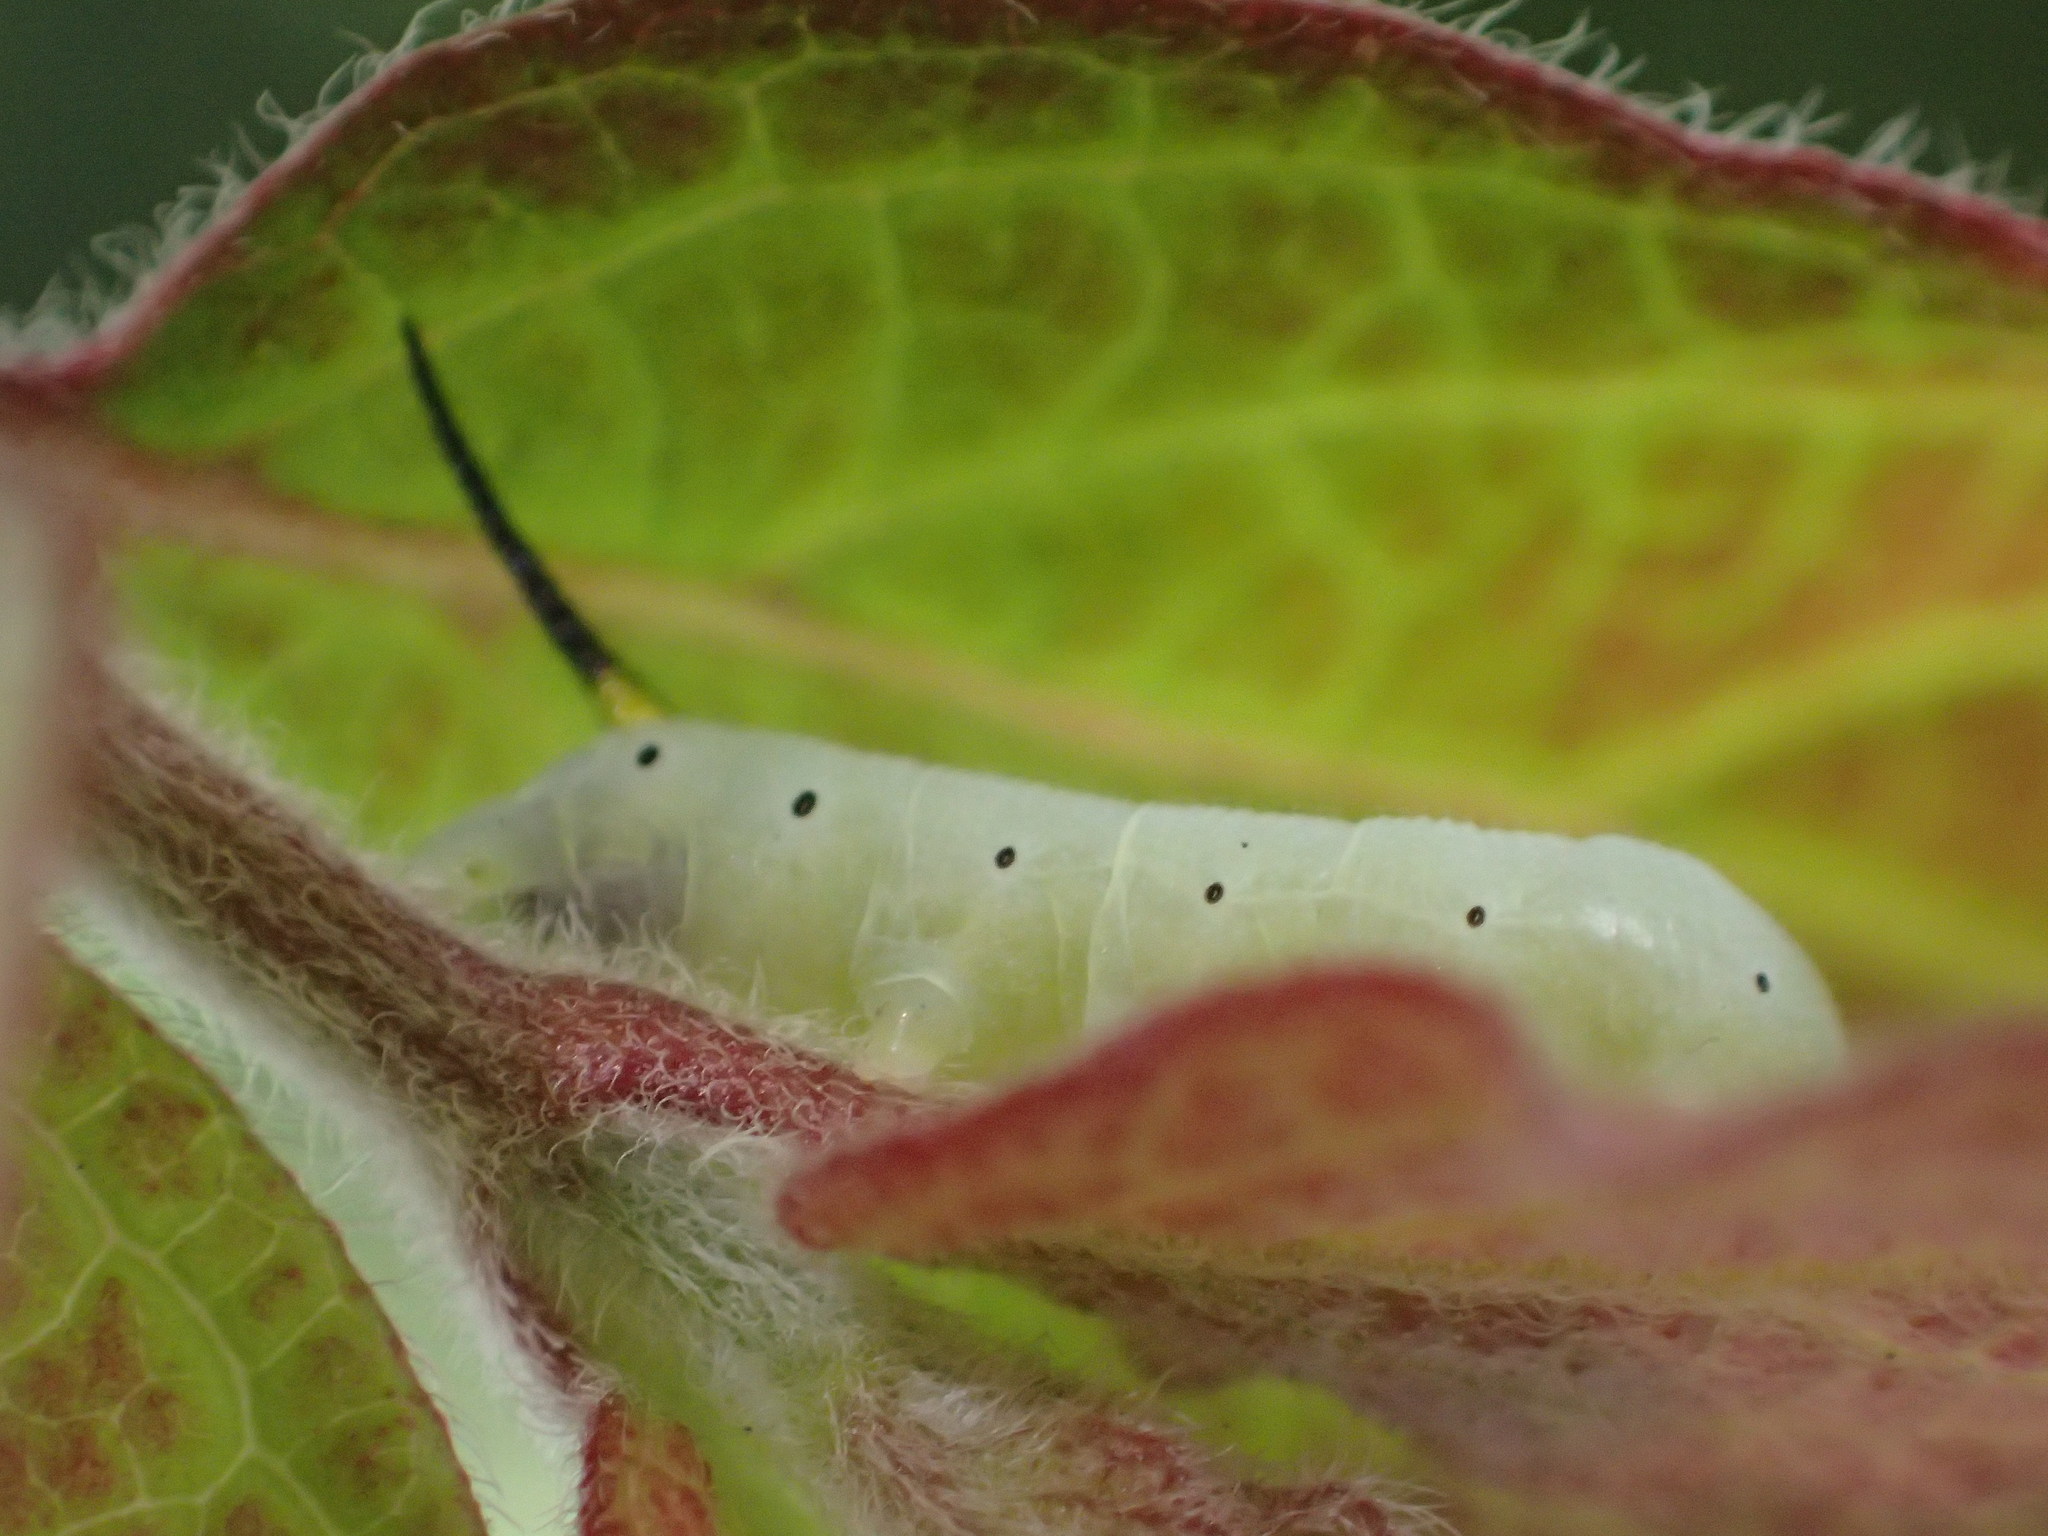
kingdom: Animalia
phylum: Arthropoda
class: Insecta
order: Lepidoptera
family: Sphingidae
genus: Hemaris
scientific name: Hemaris diffinis
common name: Bumblebee moth
